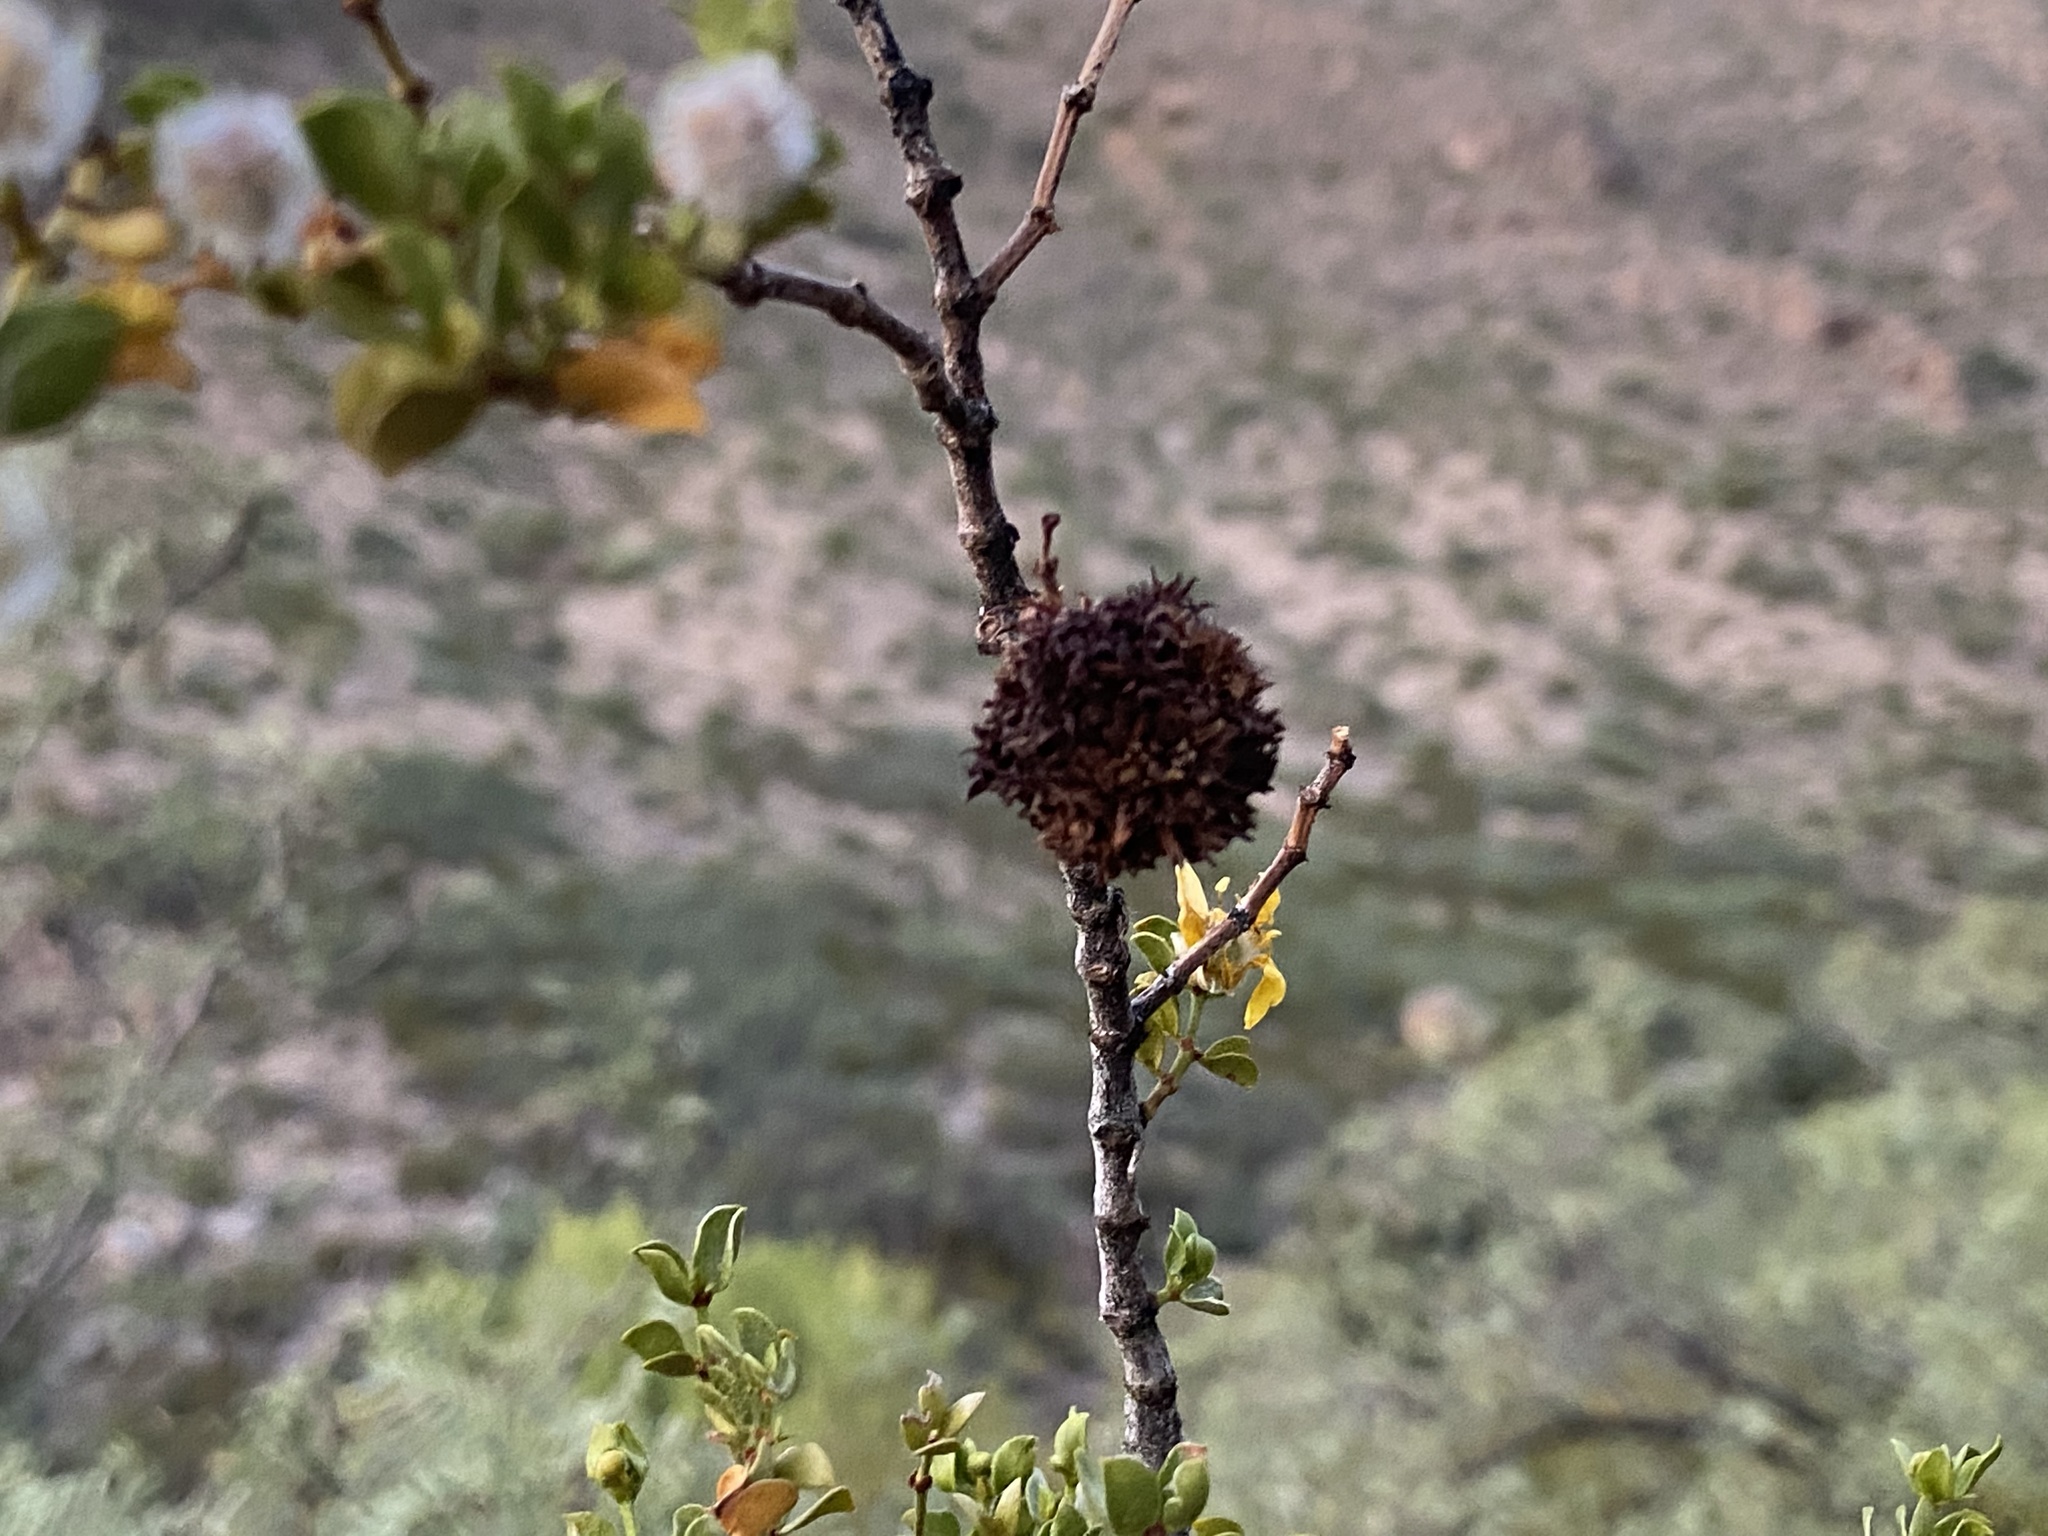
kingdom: Animalia
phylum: Arthropoda
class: Insecta
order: Diptera
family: Cecidomyiidae
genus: Asphondylia
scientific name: Asphondylia auripila
